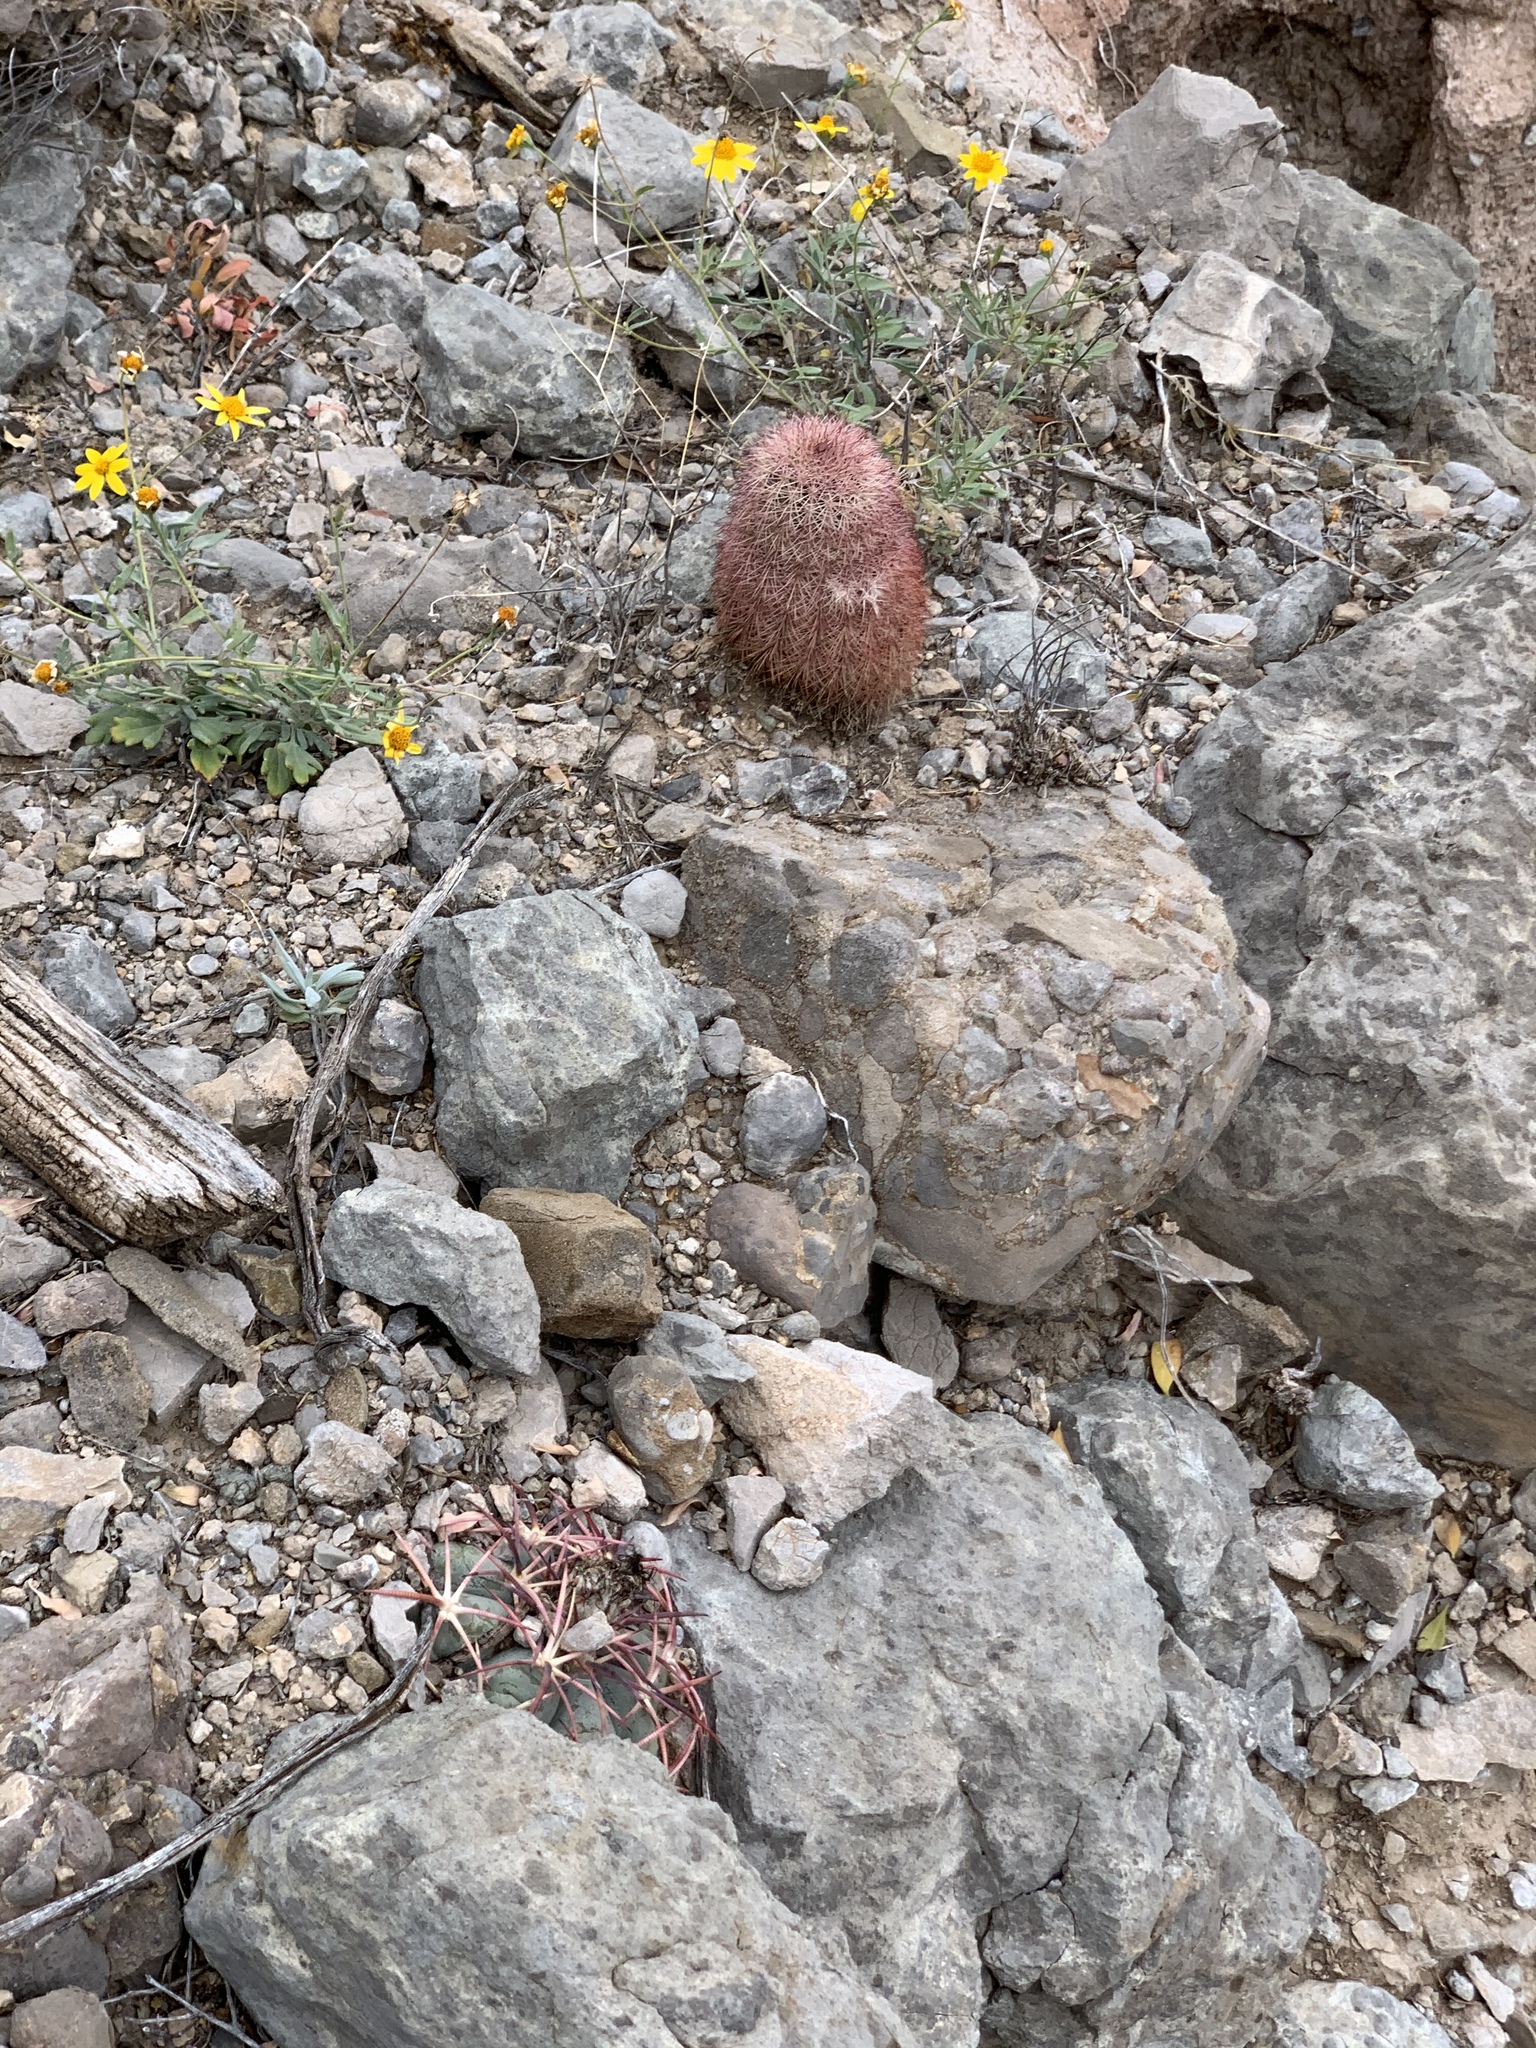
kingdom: Plantae
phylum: Tracheophyta
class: Magnoliopsida
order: Caryophyllales
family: Cactaceae
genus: Echinocereus
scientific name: Echinocereus dasyacanthus
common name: Spiny hedgehog cactus
